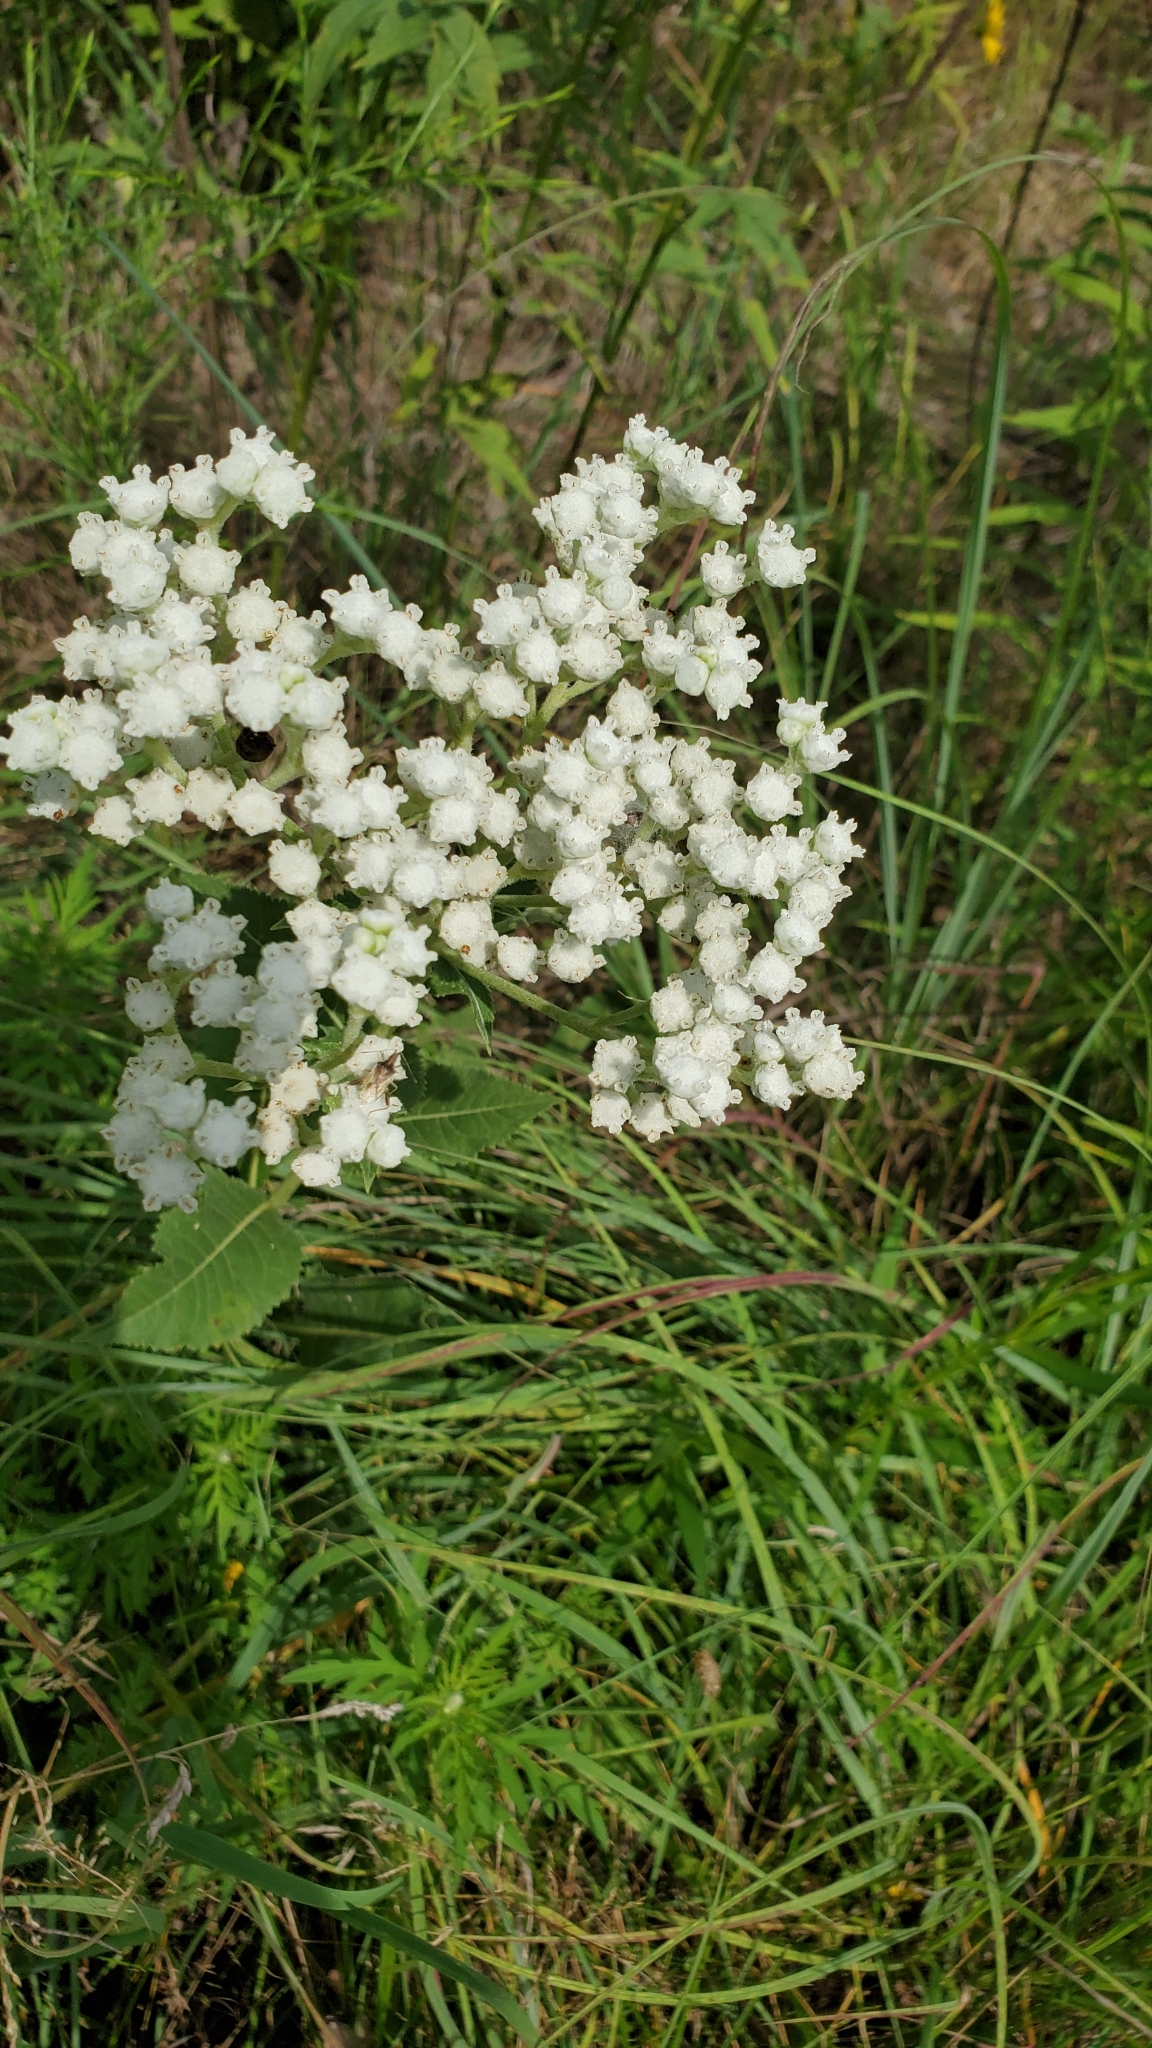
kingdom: Plantae
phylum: Tracheophyta
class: Magnoliopsida
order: Asterales
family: Asteraceae
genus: Parthenium
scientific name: Parthenium integrifolium
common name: American feverfew
